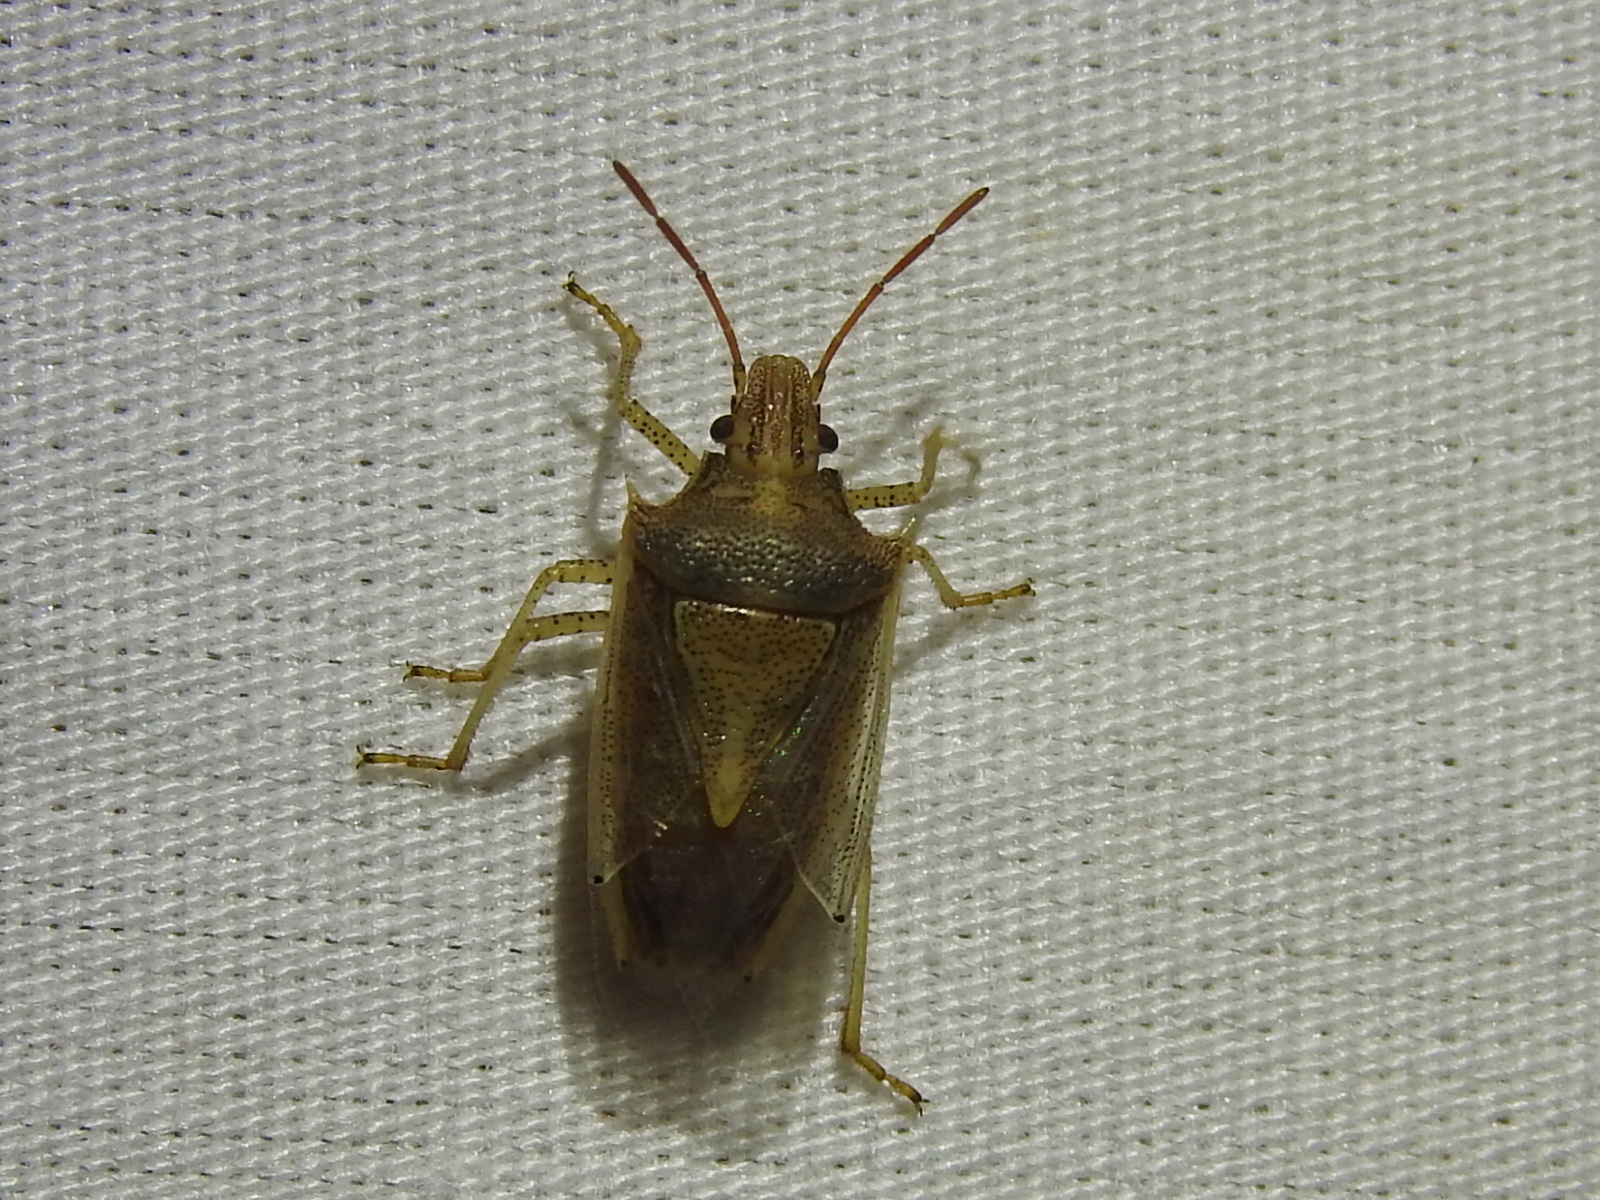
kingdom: Animalia
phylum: Arthropoda
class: Insecta
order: Hemiptera
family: Pentatomidae
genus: Oebalus
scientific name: Oebalus pugnax
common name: Rice stink bug
